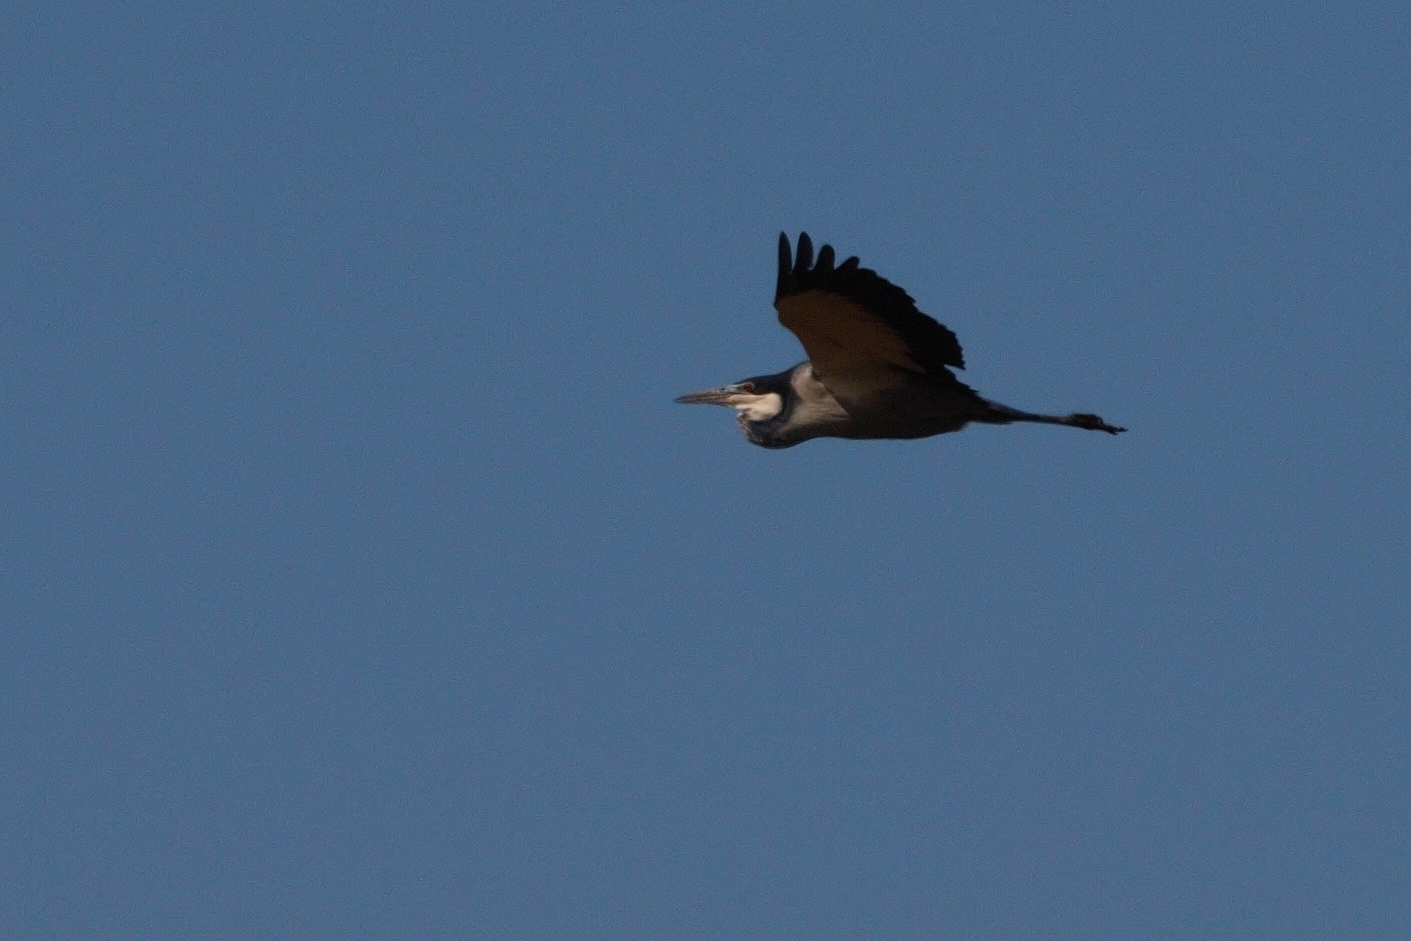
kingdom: Animalia
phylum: Chordata
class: Aves
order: Pelecaniformes
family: Ardeidae
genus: Ardea
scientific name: Ardea melanocephala
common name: Black-headed heron
